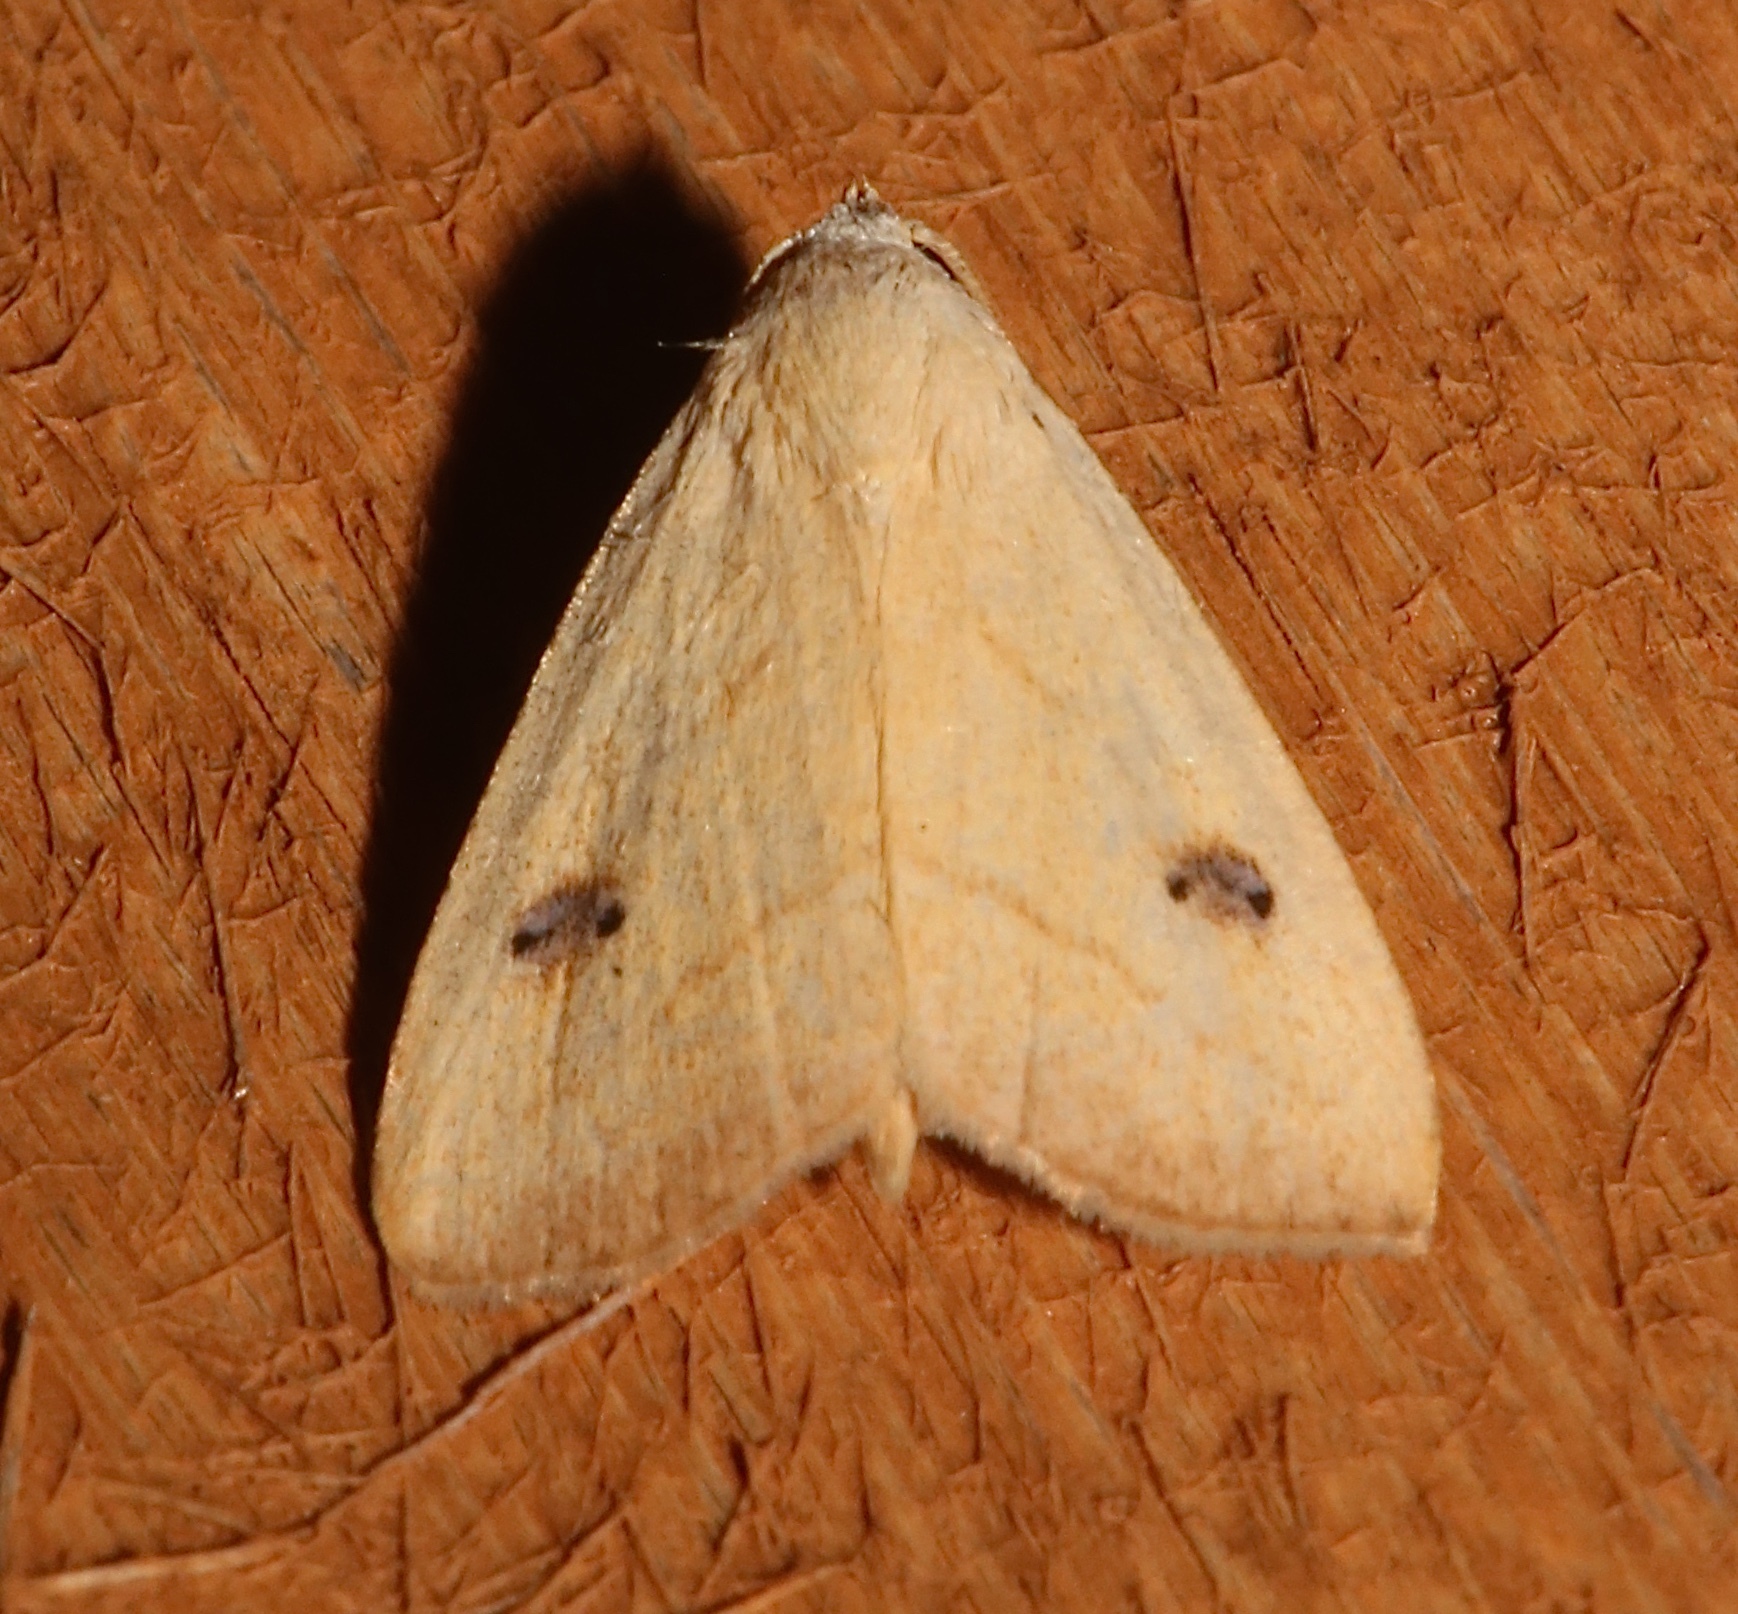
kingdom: Animalia
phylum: Arthropoda
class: Insecta
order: Lepidoptera
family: Erebidae
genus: Rivula
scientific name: Rivula propinqualis
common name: Spotted grass moth
